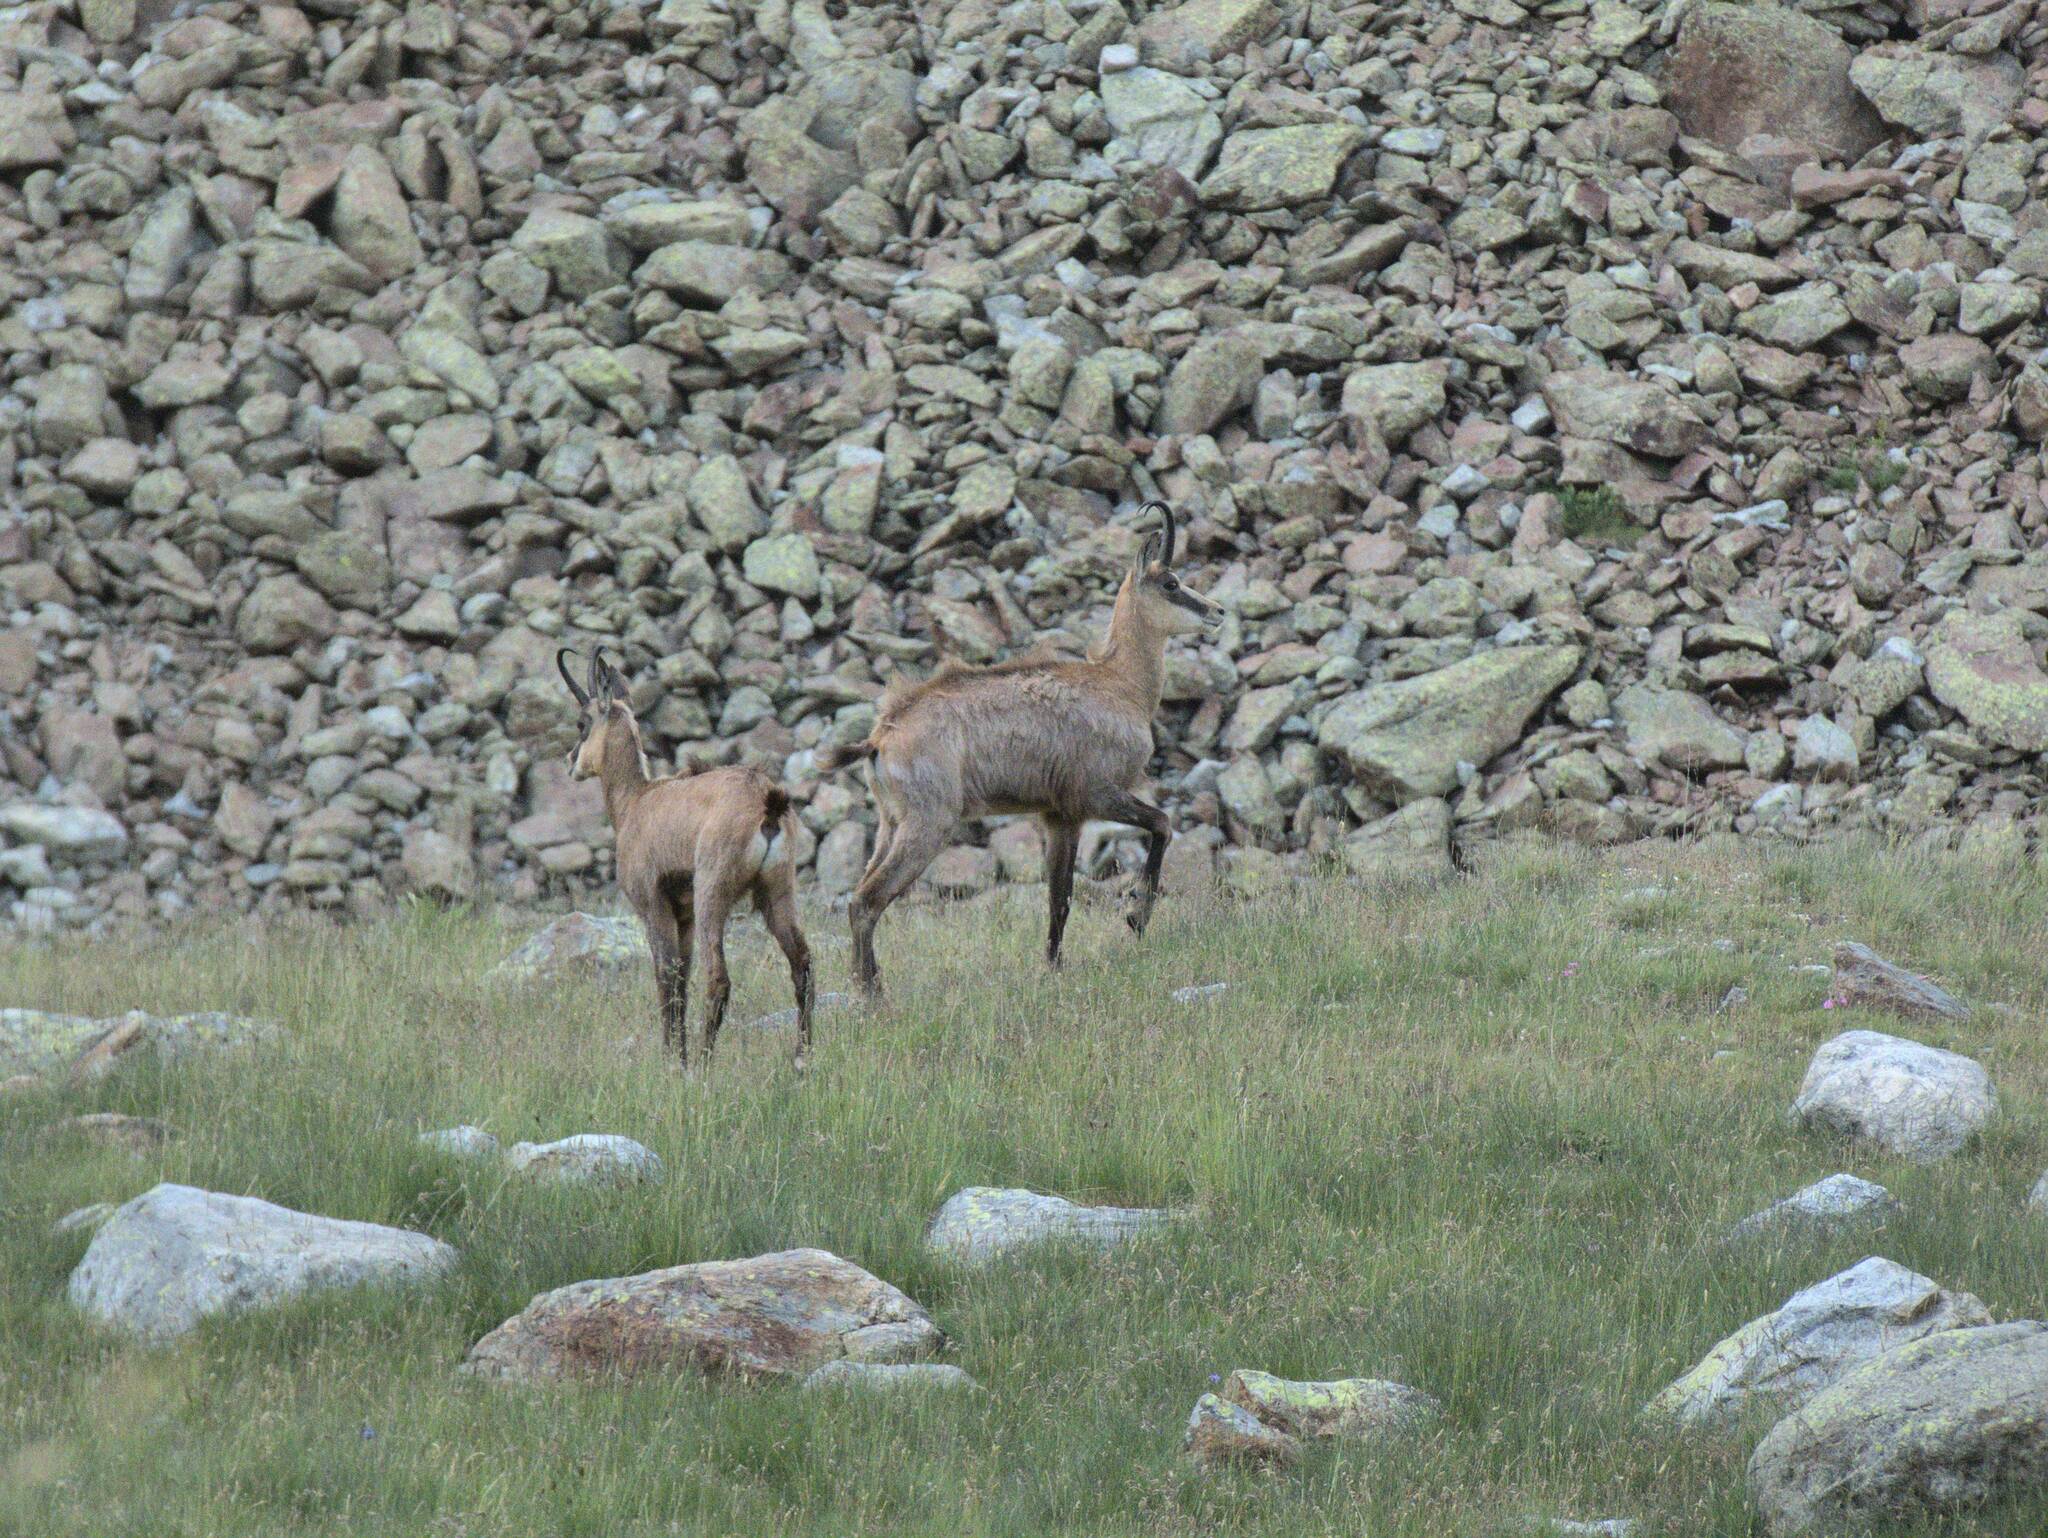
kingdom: Animalia
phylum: Chordata
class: Mammalia
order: Artiodactyla
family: Bovidae
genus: Rupicapra
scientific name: Rupicapra rupicapra
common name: Chamois
